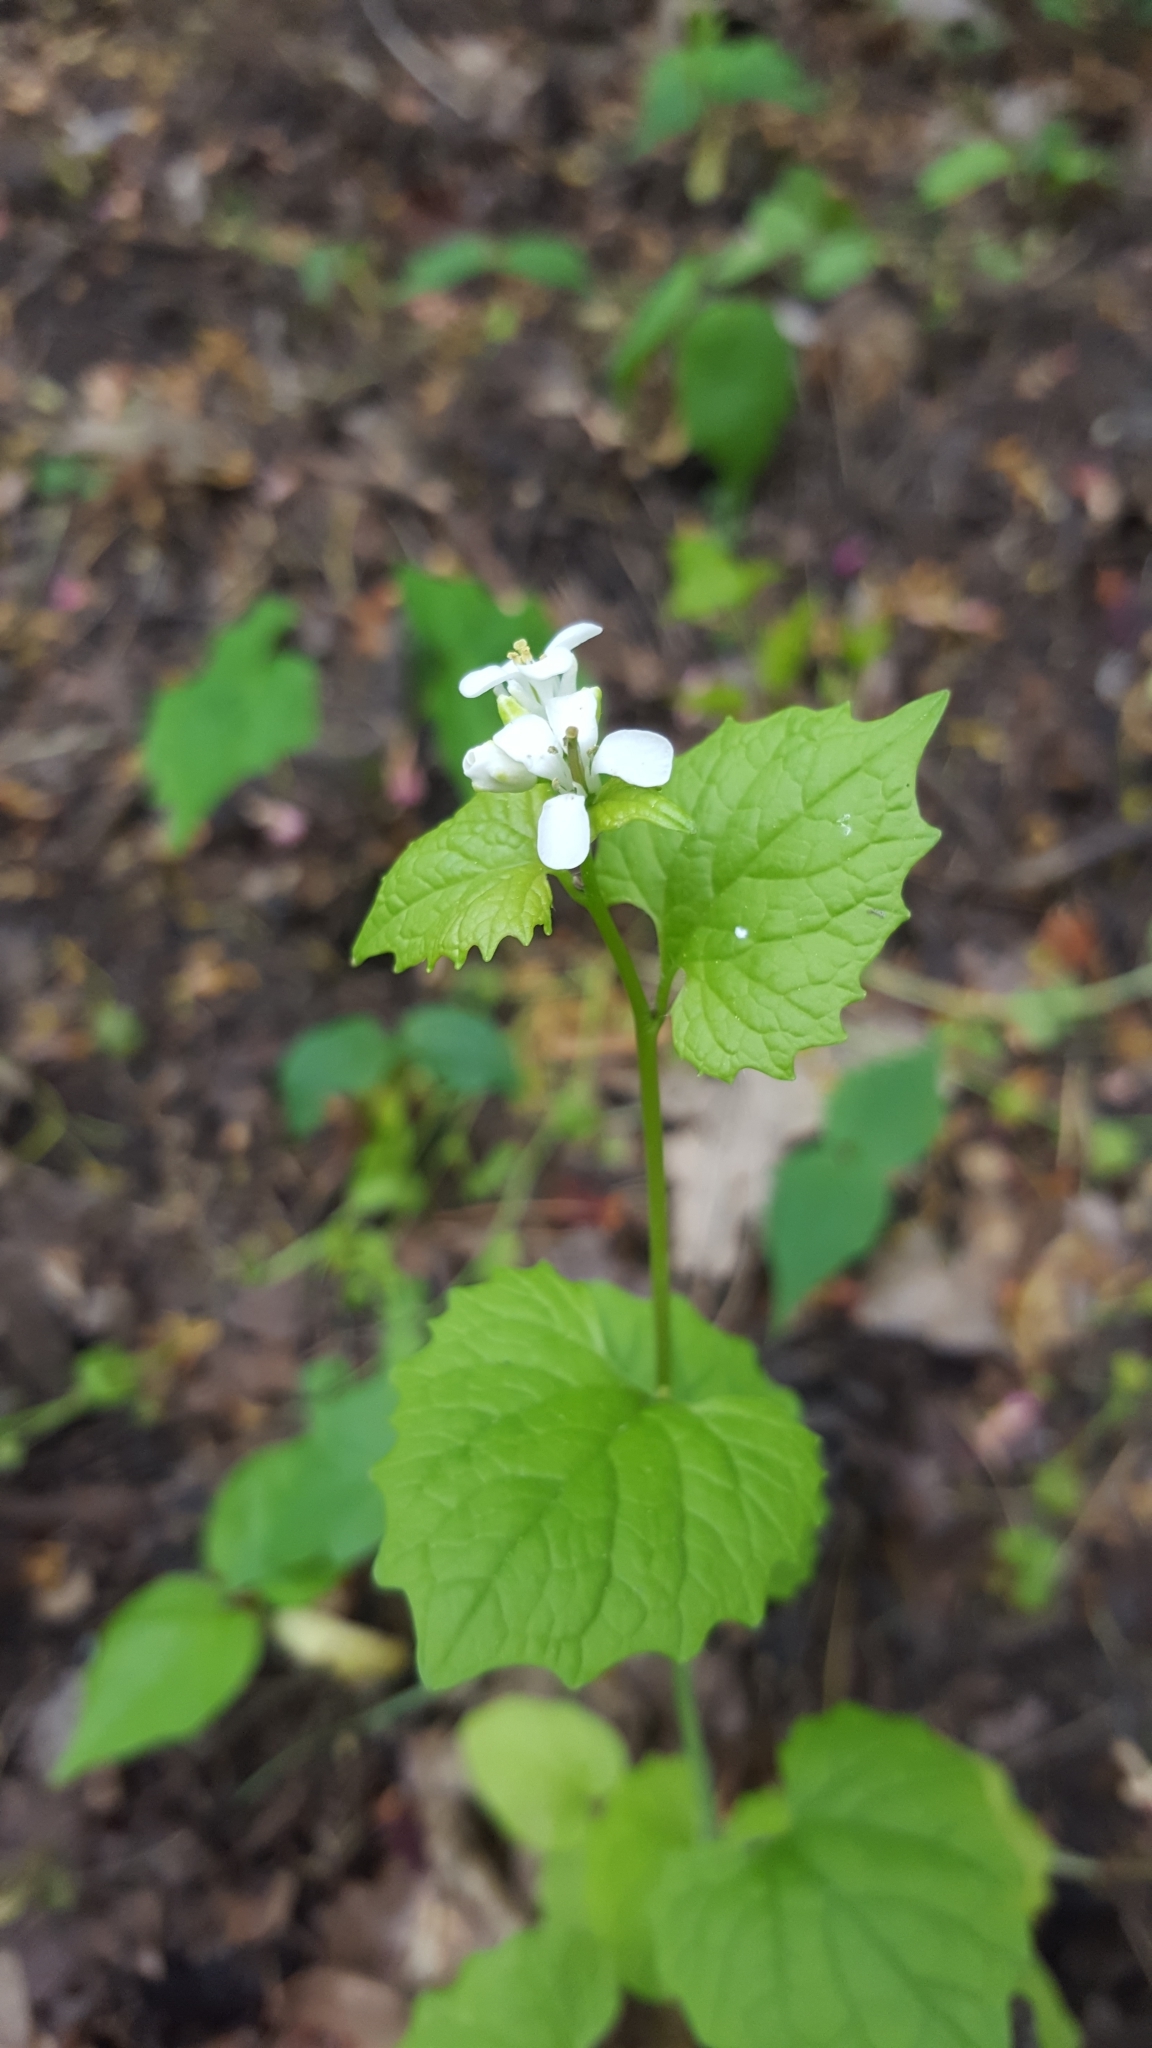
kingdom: Plantae
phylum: Tracheophyta
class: Magnoliopsida
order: Brassicales
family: Brassicaceae
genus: Alliaria
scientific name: Alliaria petiolata
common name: Garlic mustard
